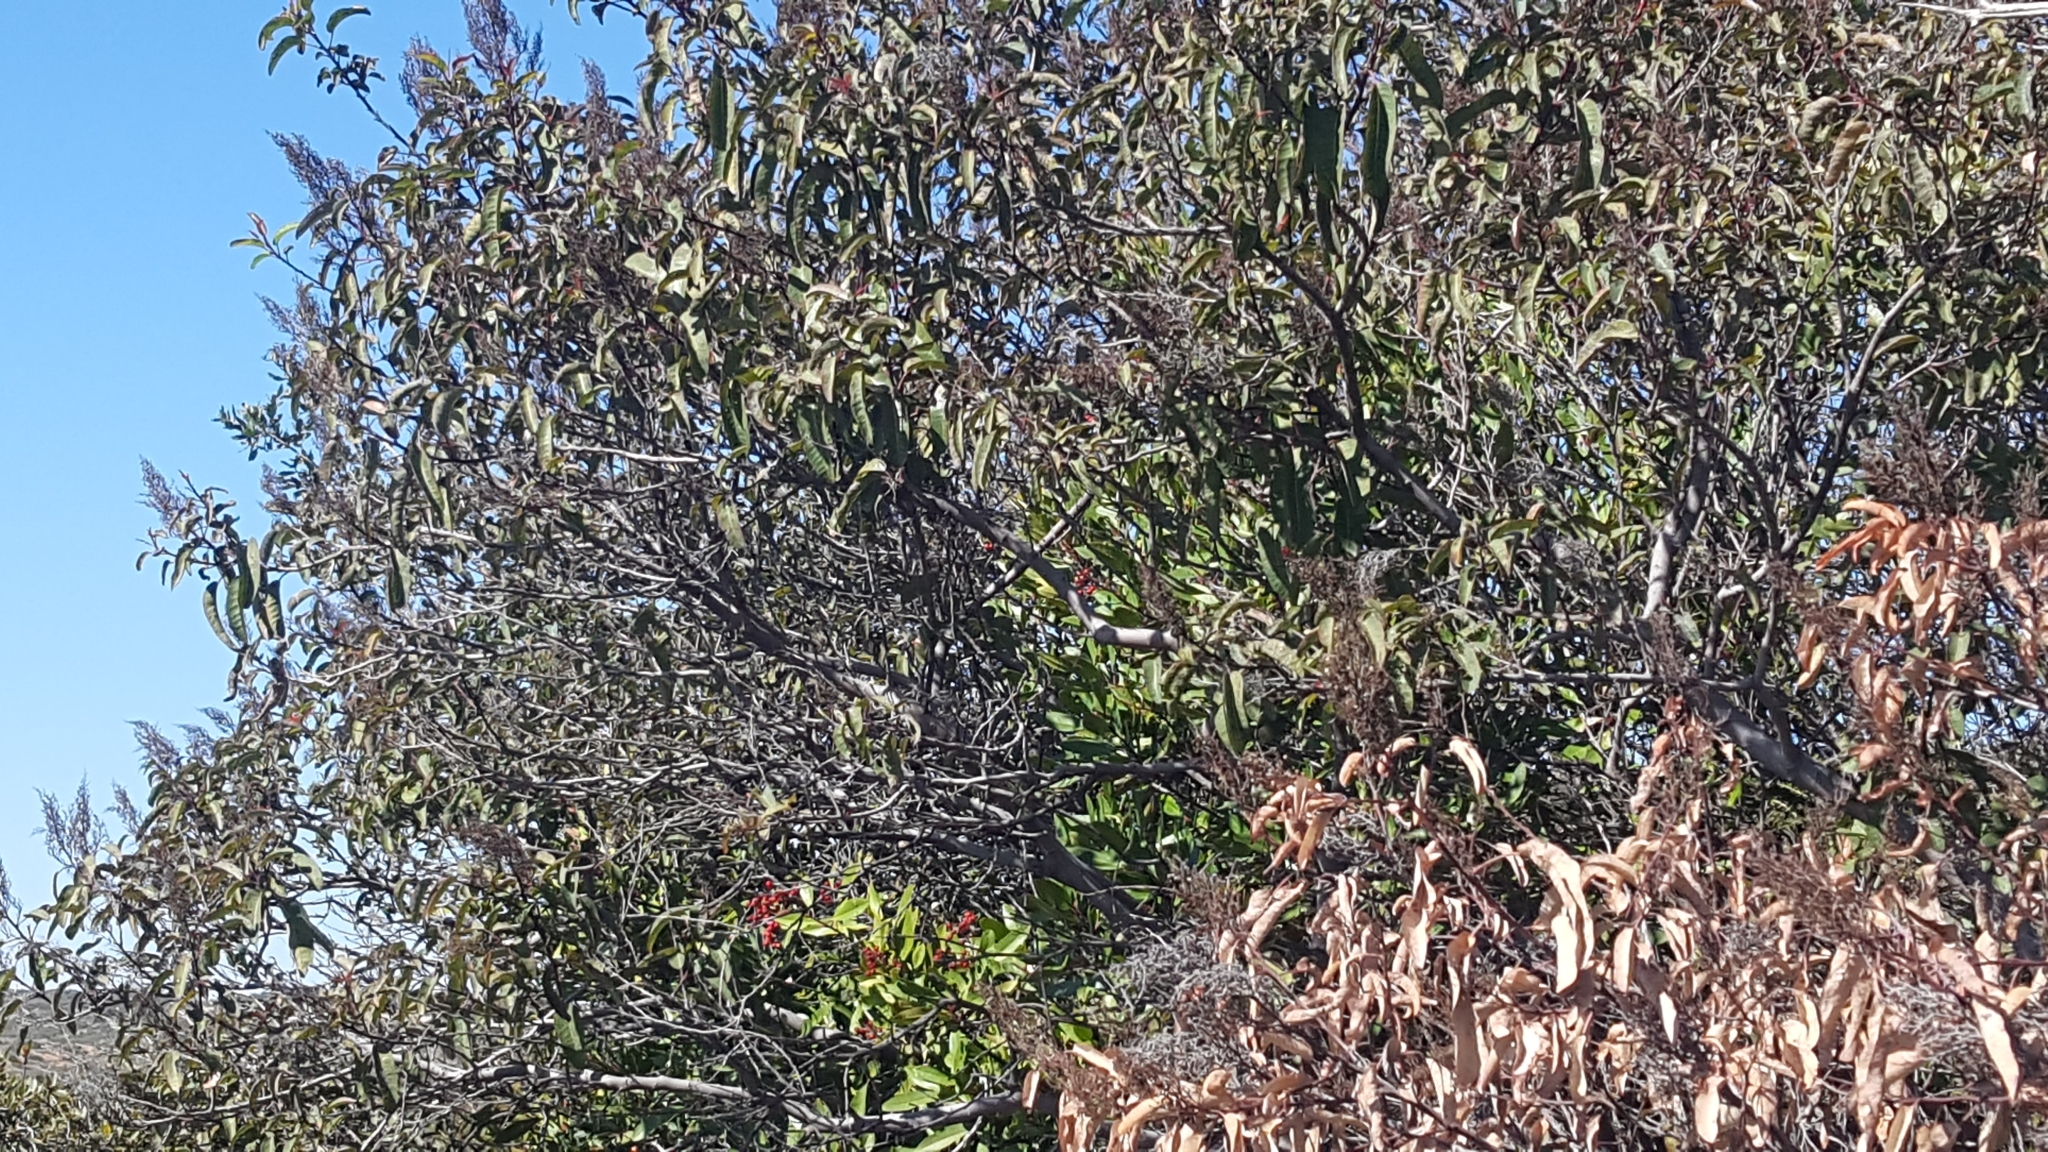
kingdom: Plantae
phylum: Tracheophyta
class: Magnoliopsida
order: Sapindales
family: Anacardiaceae
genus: Malosma
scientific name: Malosma laurina
